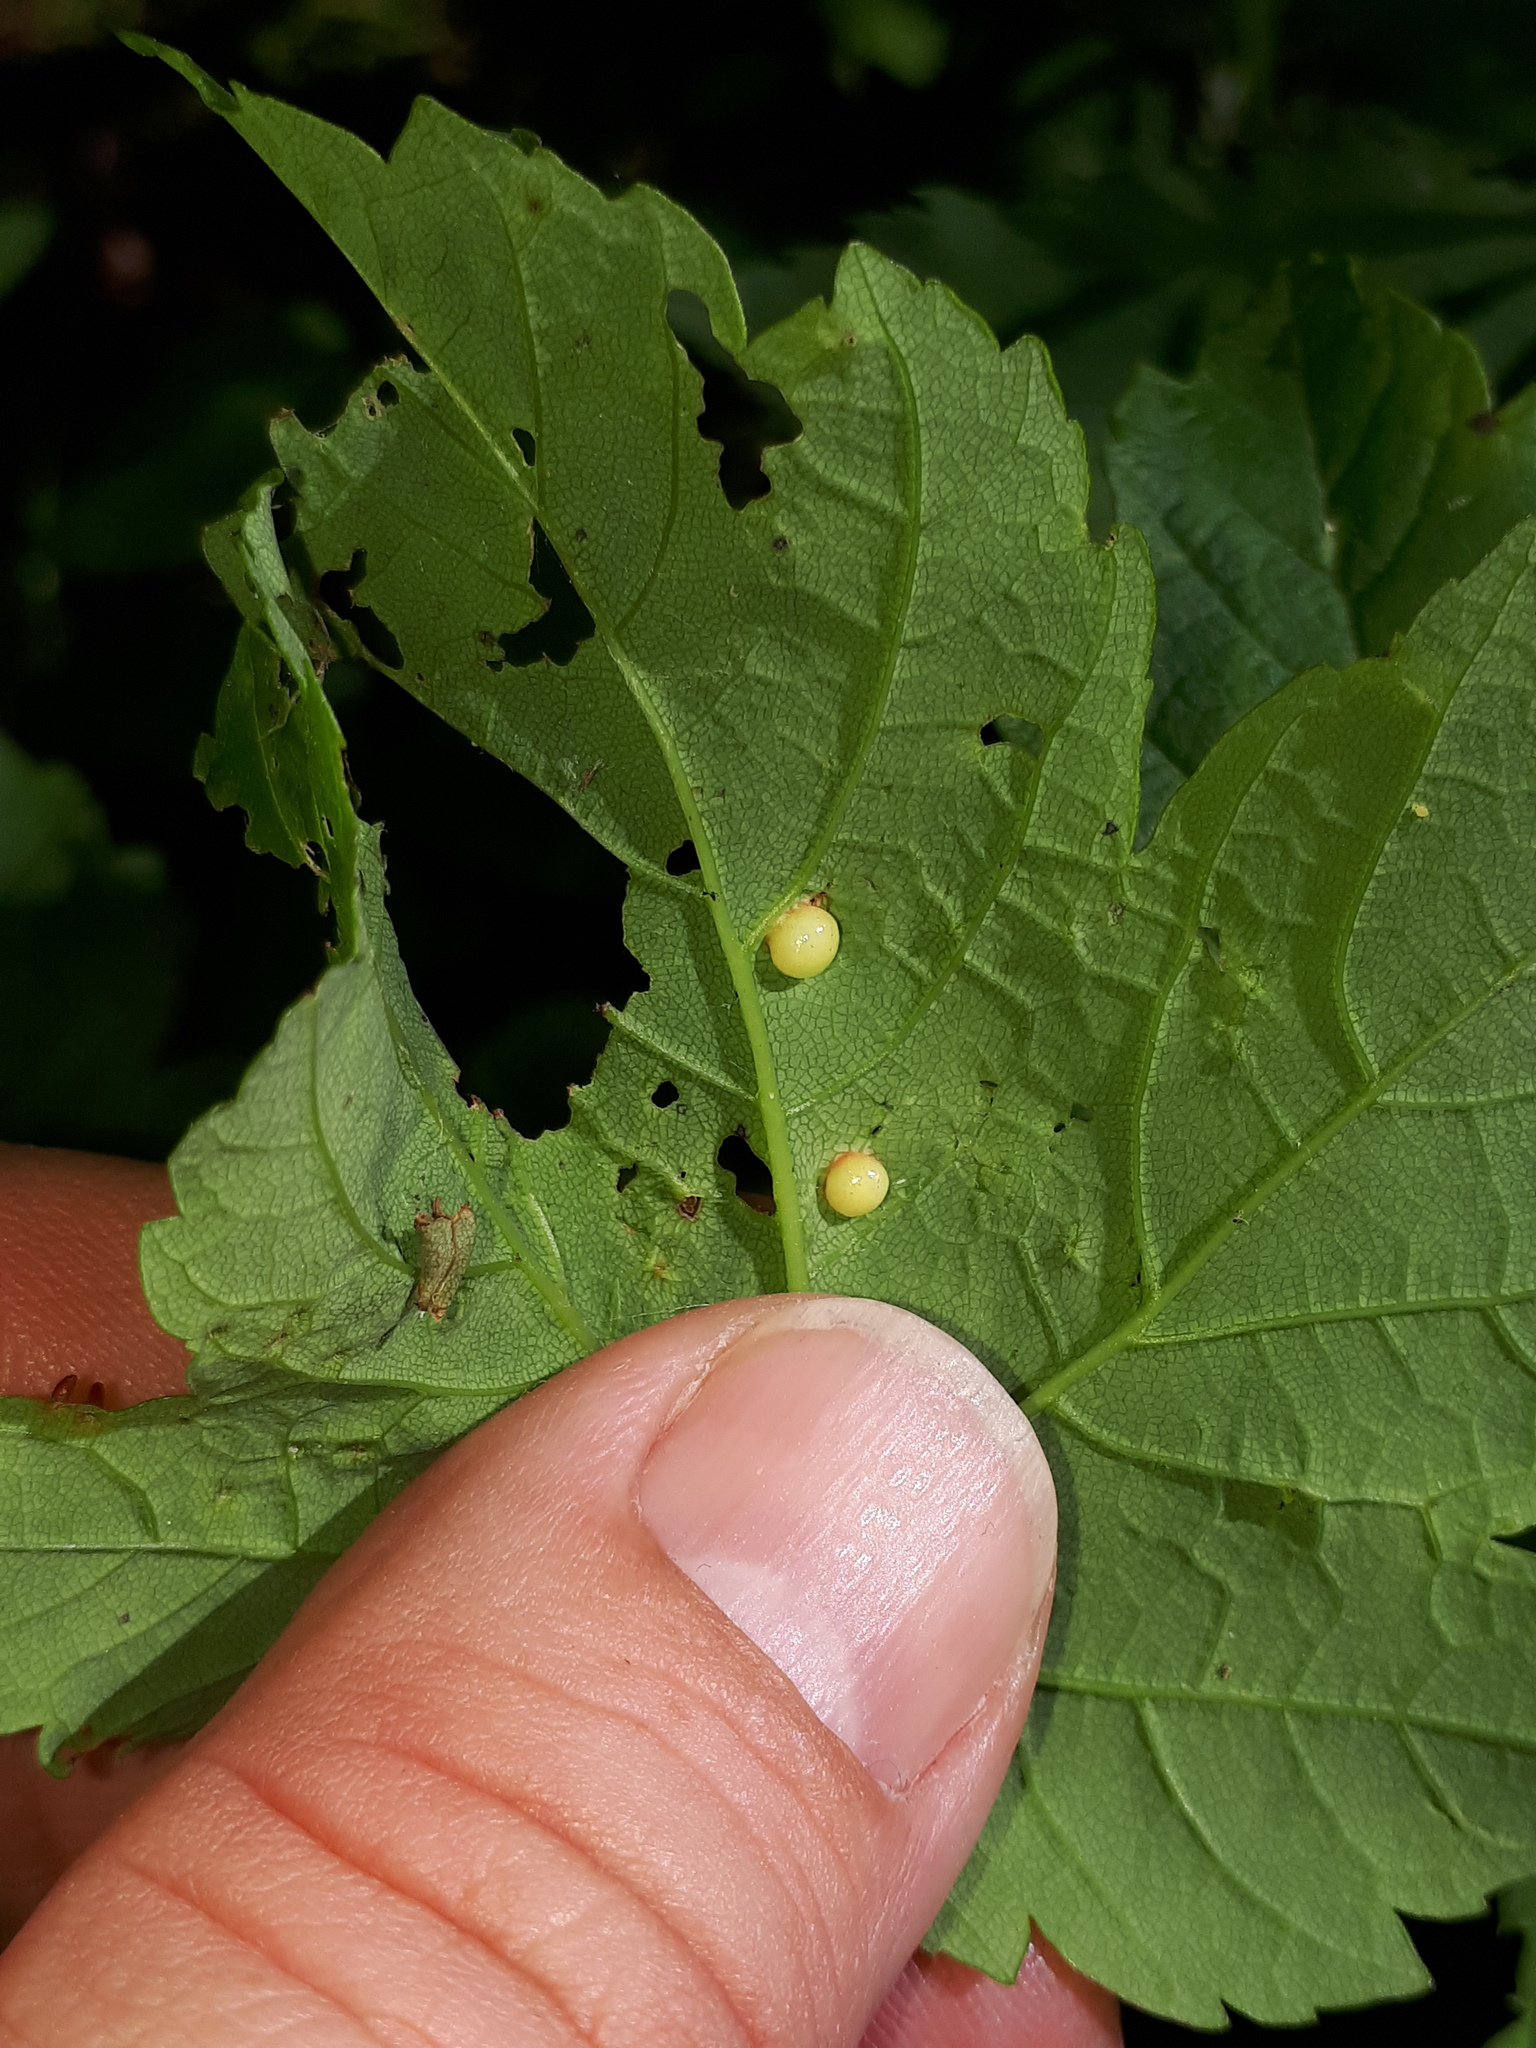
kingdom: Animalia
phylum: Arthropoda
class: Insecta
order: Hymenoptera
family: Cynipidae
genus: Pediaspis
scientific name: Pediaspis aceris
